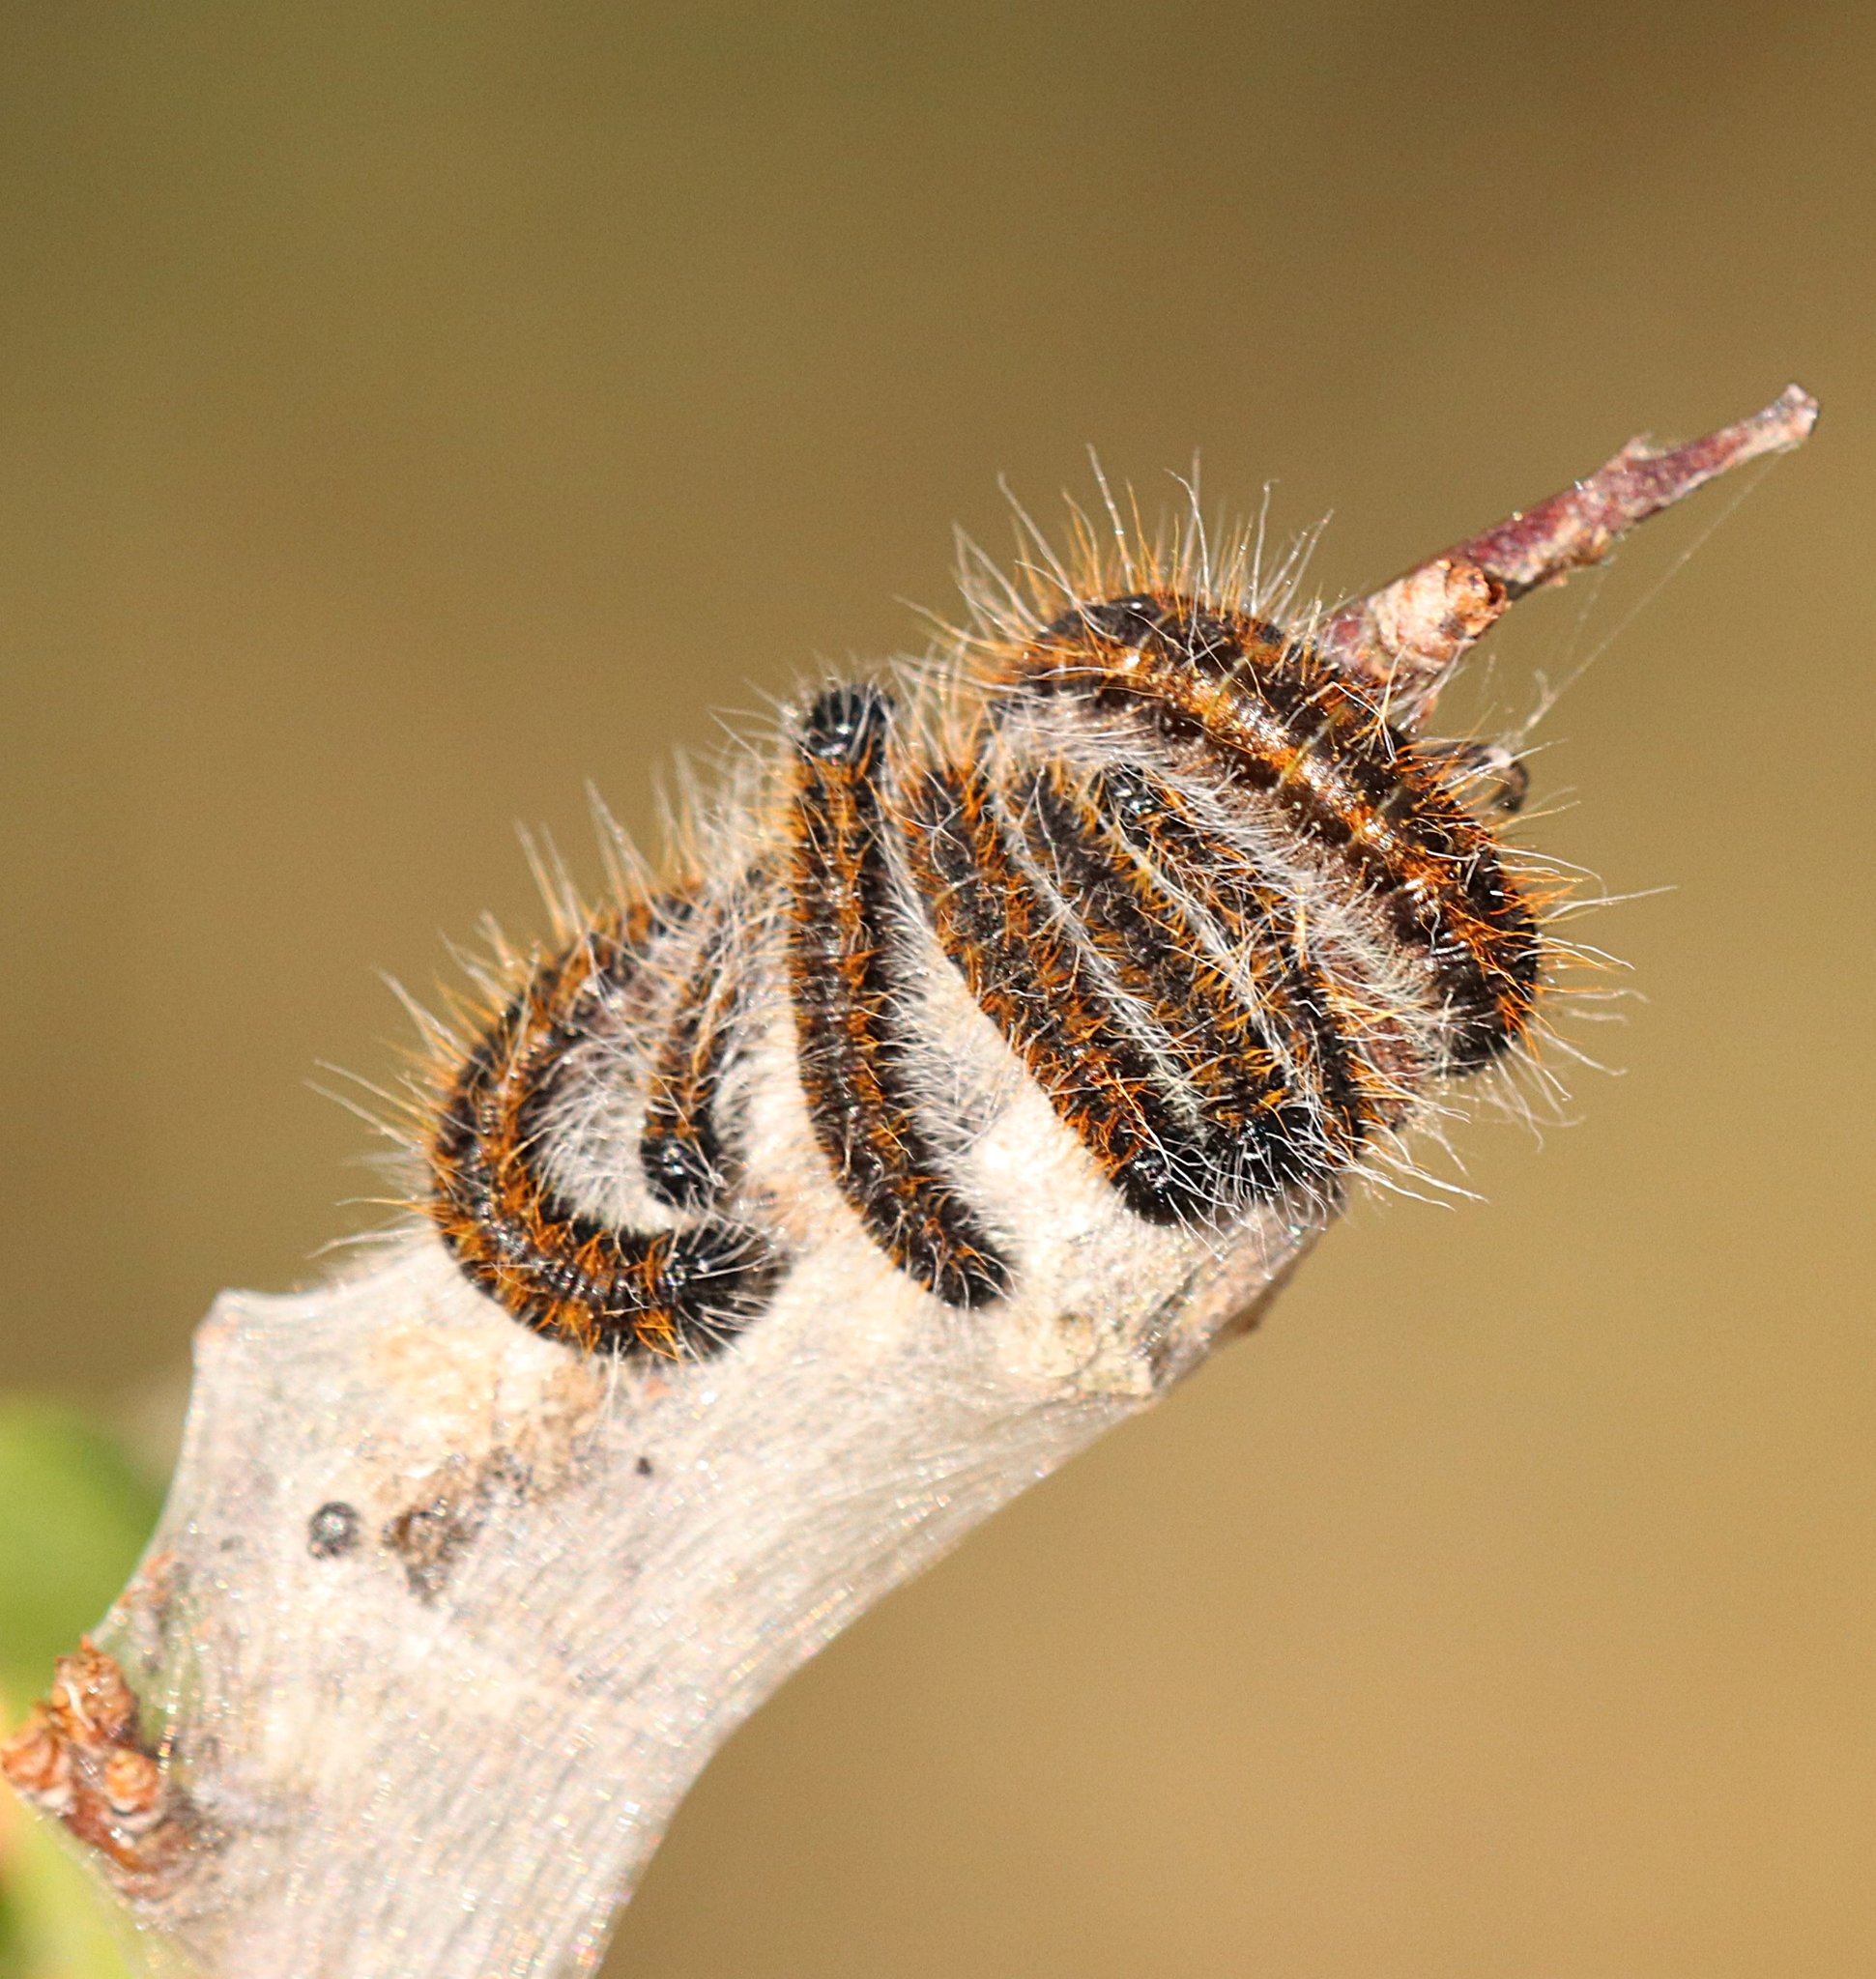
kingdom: Animalia
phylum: Arthropoda
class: Insecta
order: Lepidoptera
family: Pieridae
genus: Aporia
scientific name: Aporia crataegi
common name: Black-veined white
